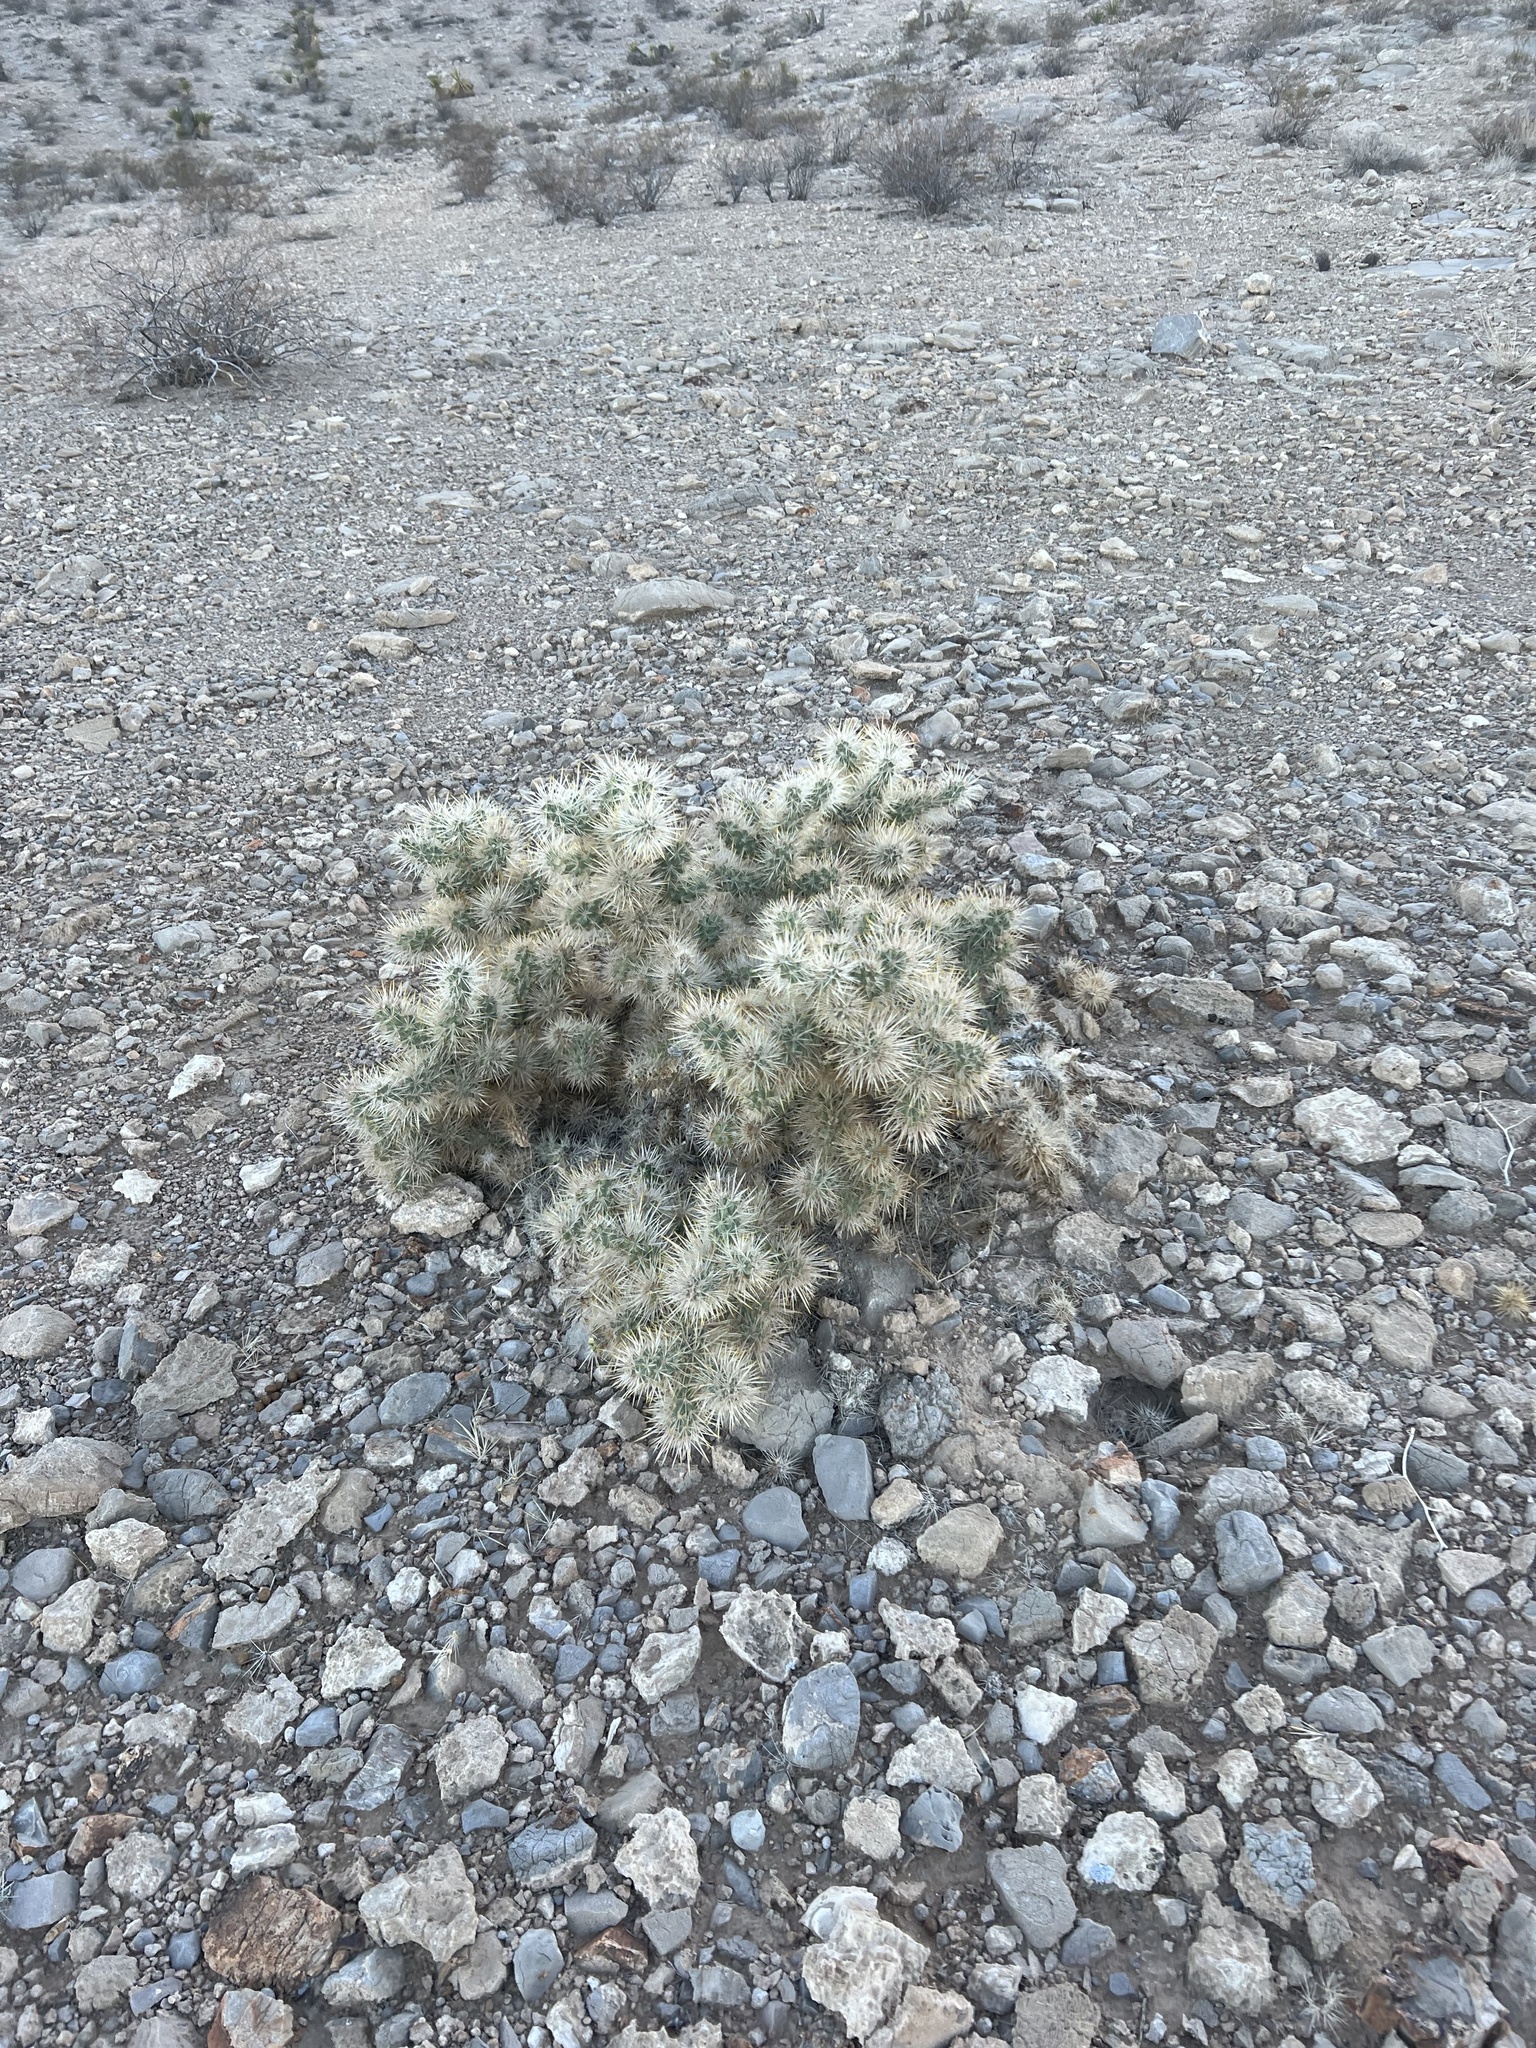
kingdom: Plantae
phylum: Tracheophyta
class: Magnoliopsida
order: Caryophyllales
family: Cactaceae
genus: Cylindropuntia
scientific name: Cylindropuntia echinocarpa
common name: Ground cholla
